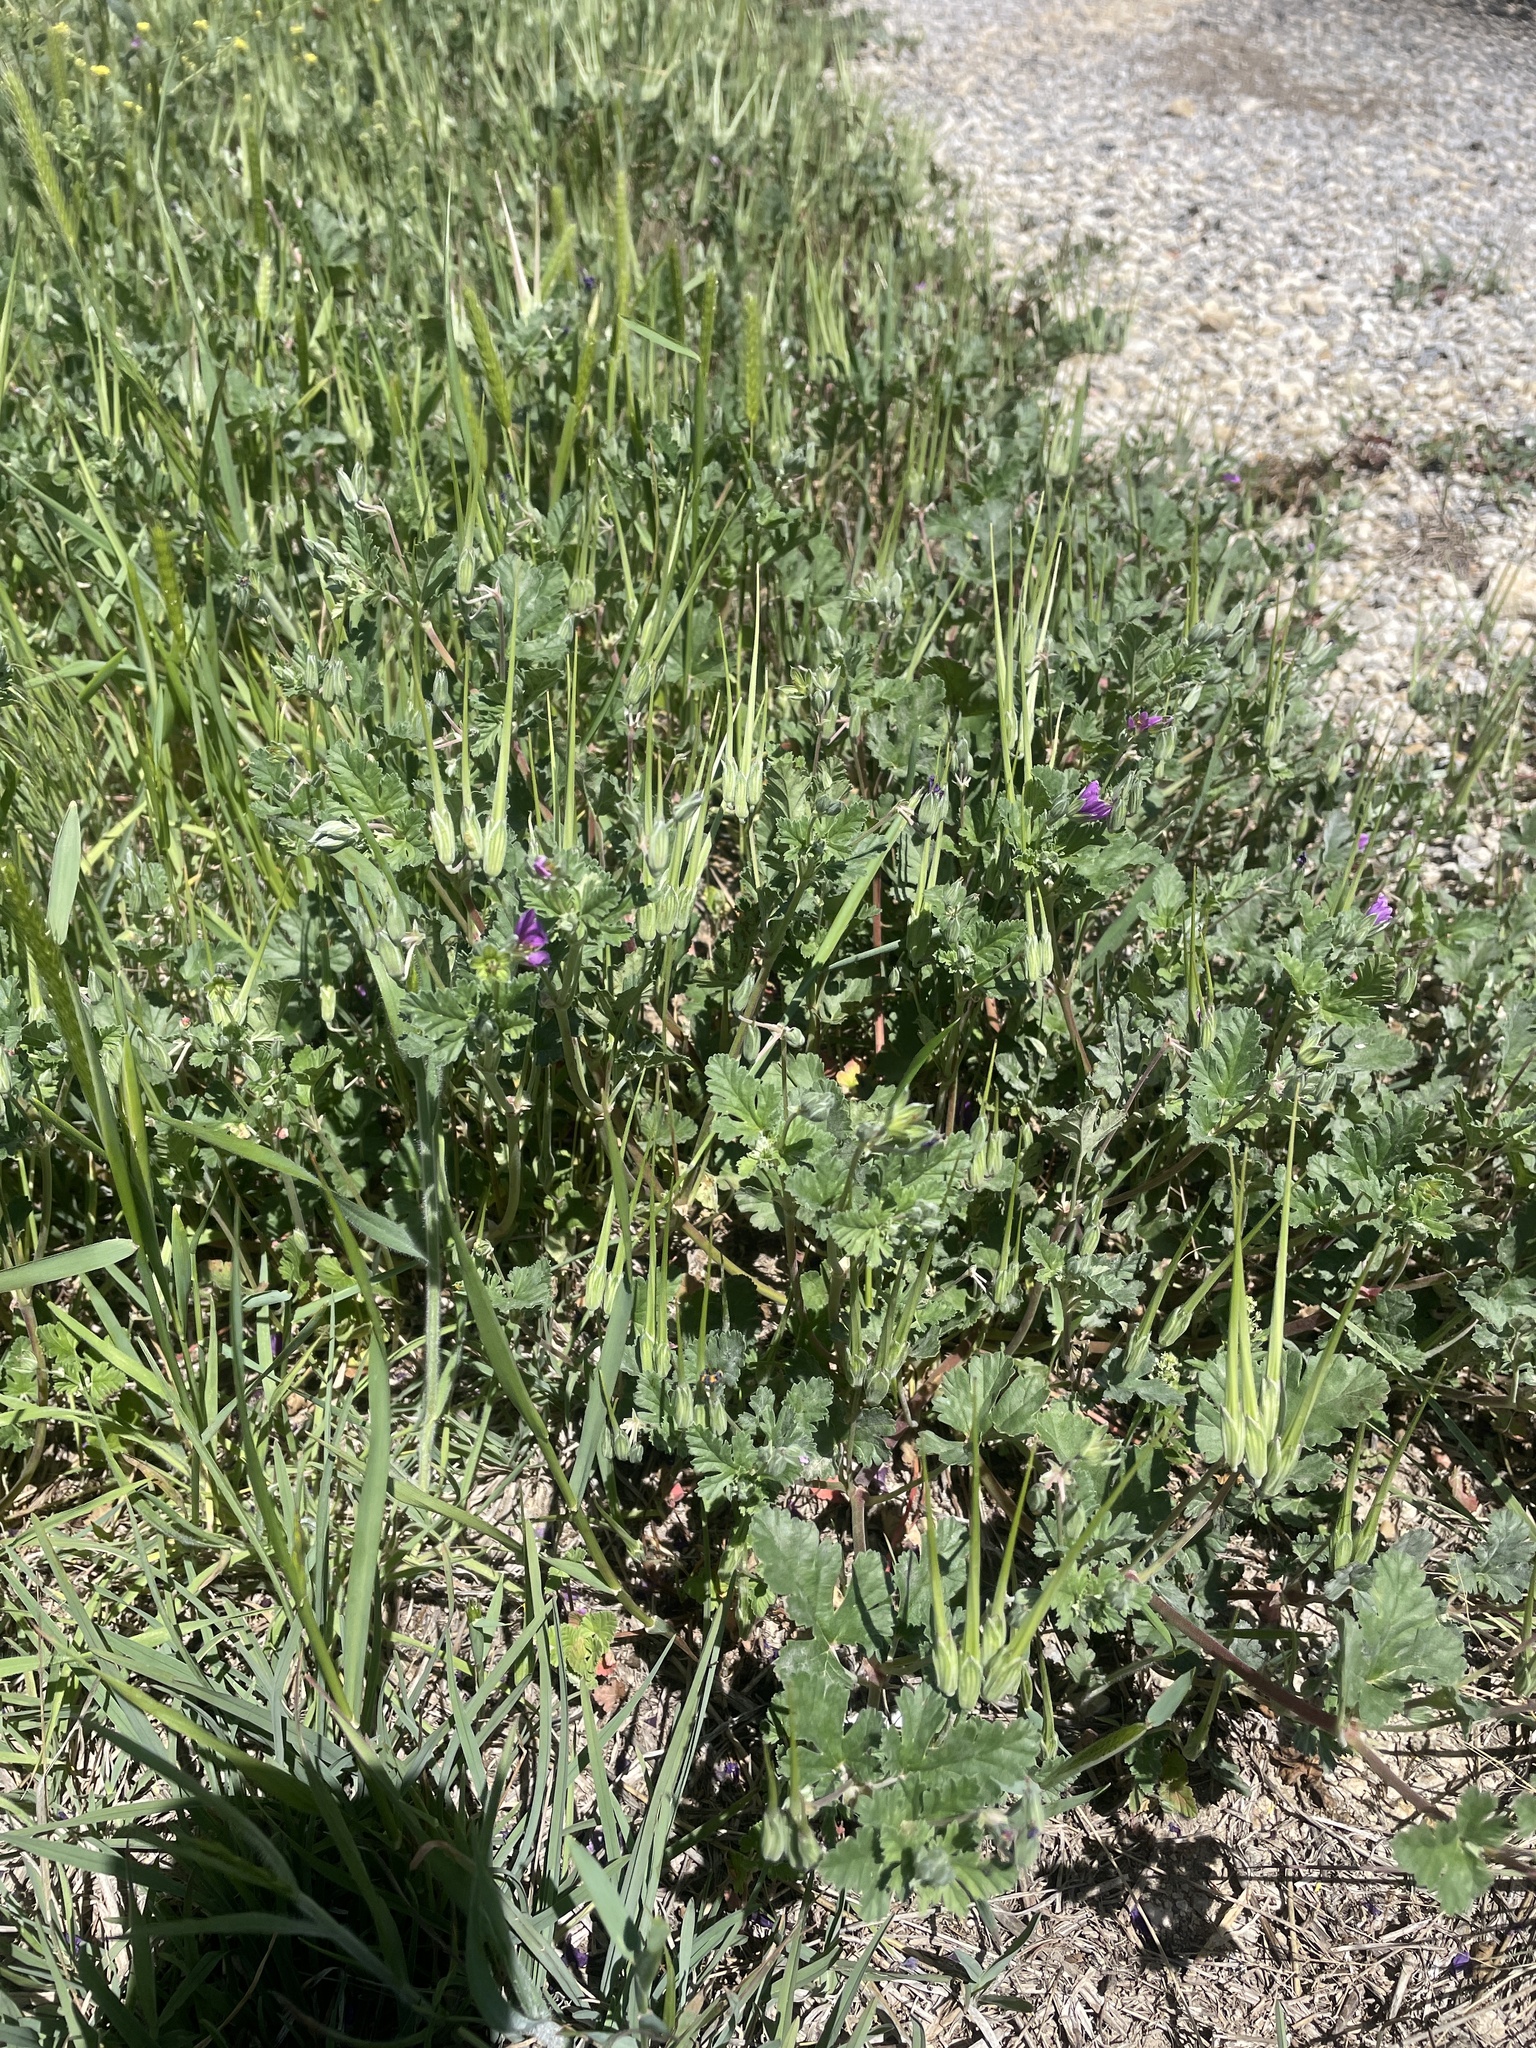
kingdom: Plantae
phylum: Tracheophyta
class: Magnoliopsida
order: Geraniales
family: Geraniaceae
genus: Erodium
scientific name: Erodium texanum
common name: Texas stork's-bill
